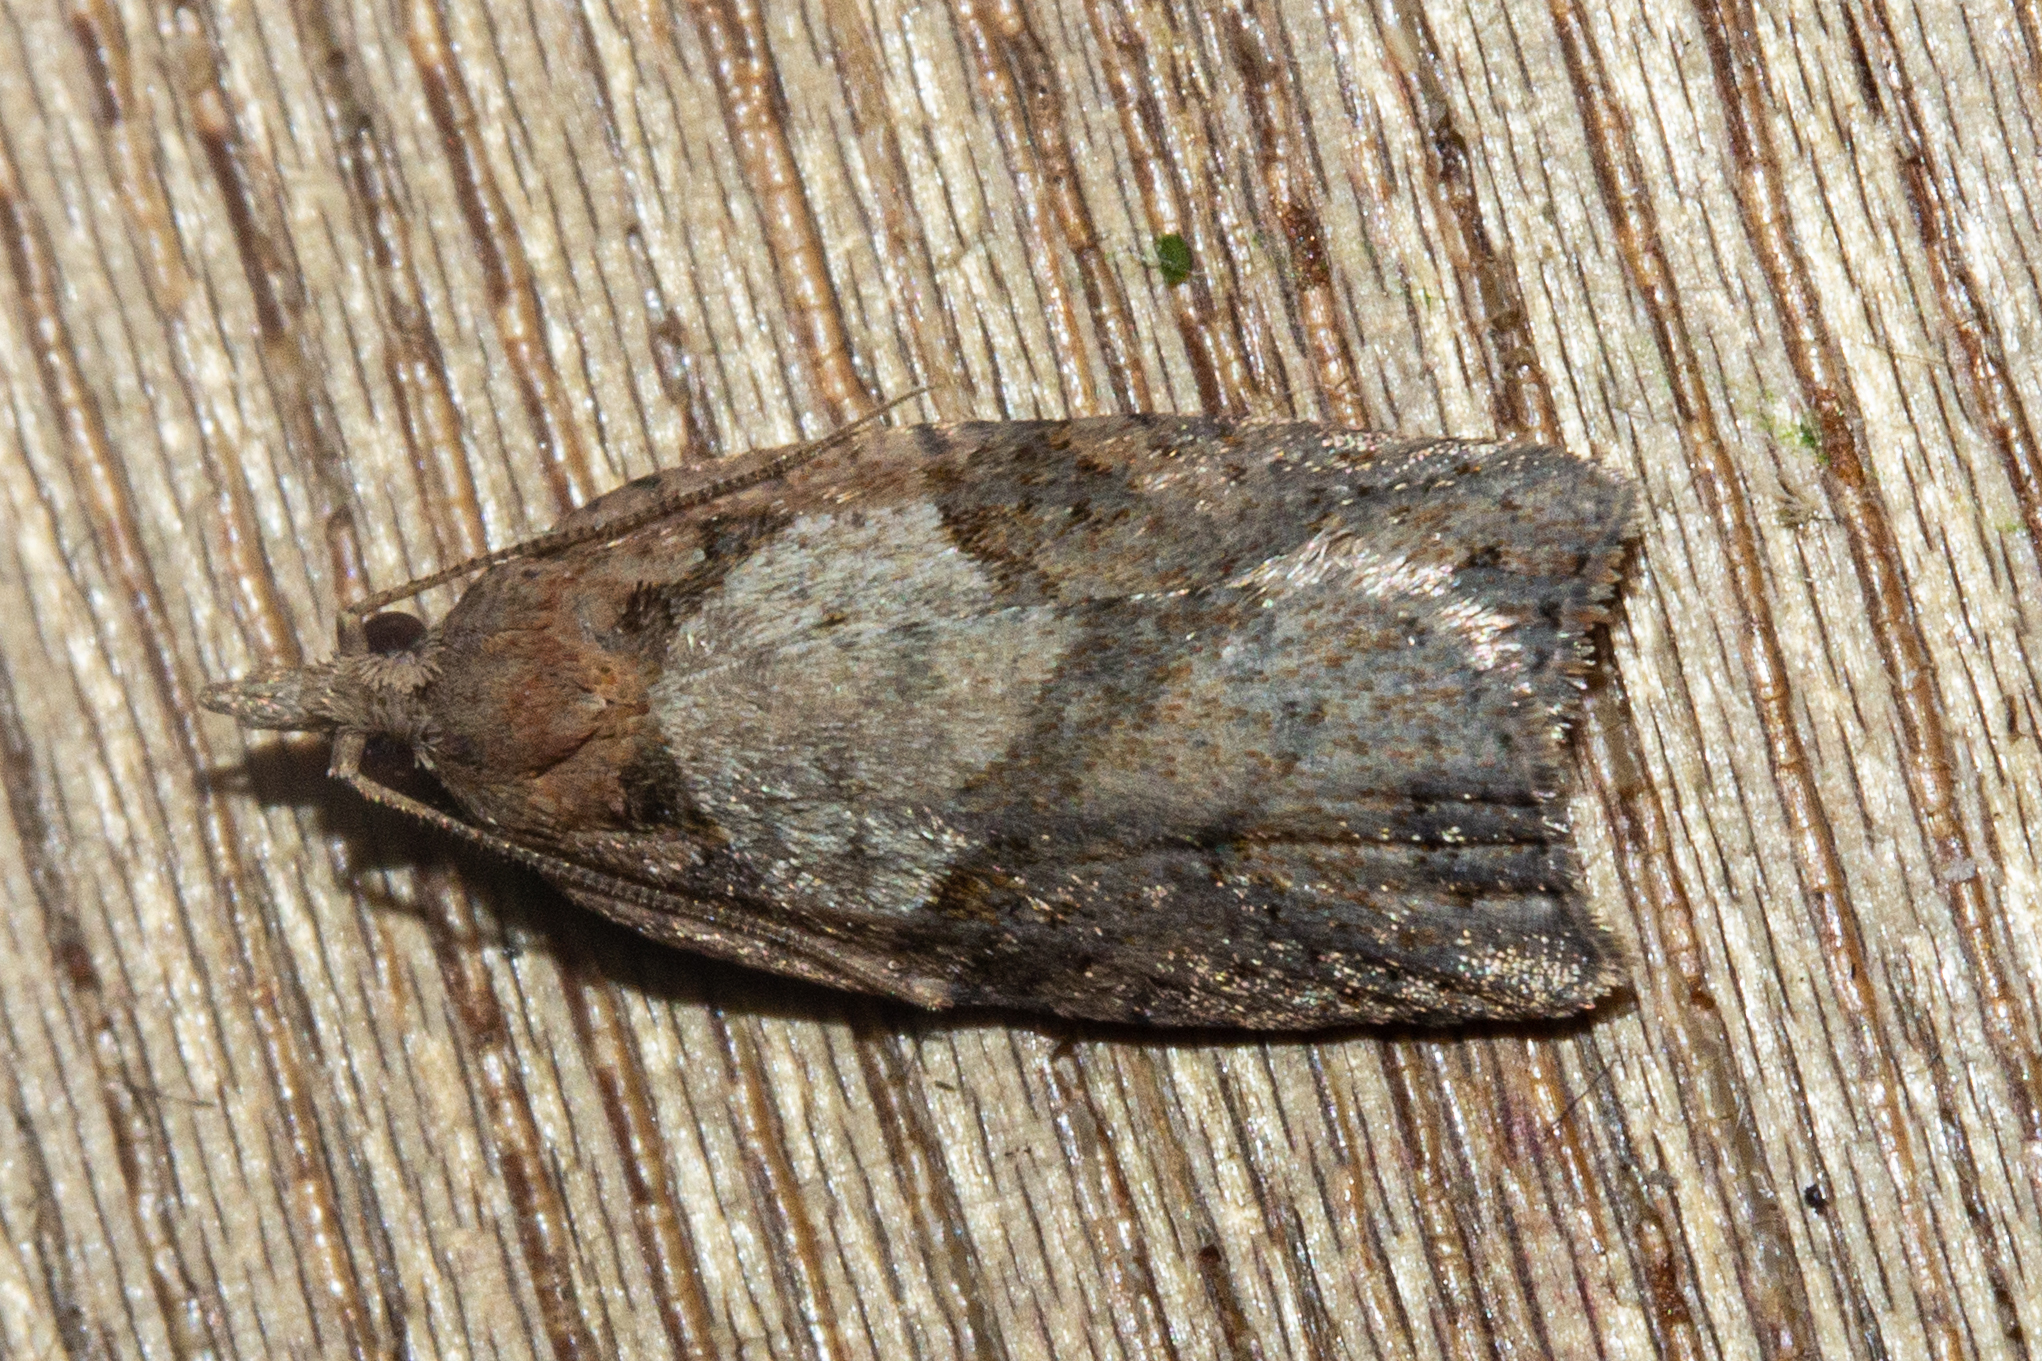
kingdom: Animalia
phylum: Arthropoda
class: Insecta
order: Lepidoptera
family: Tortricidae
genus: Ctenopseustis
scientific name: Ctenopseustis obliquana
